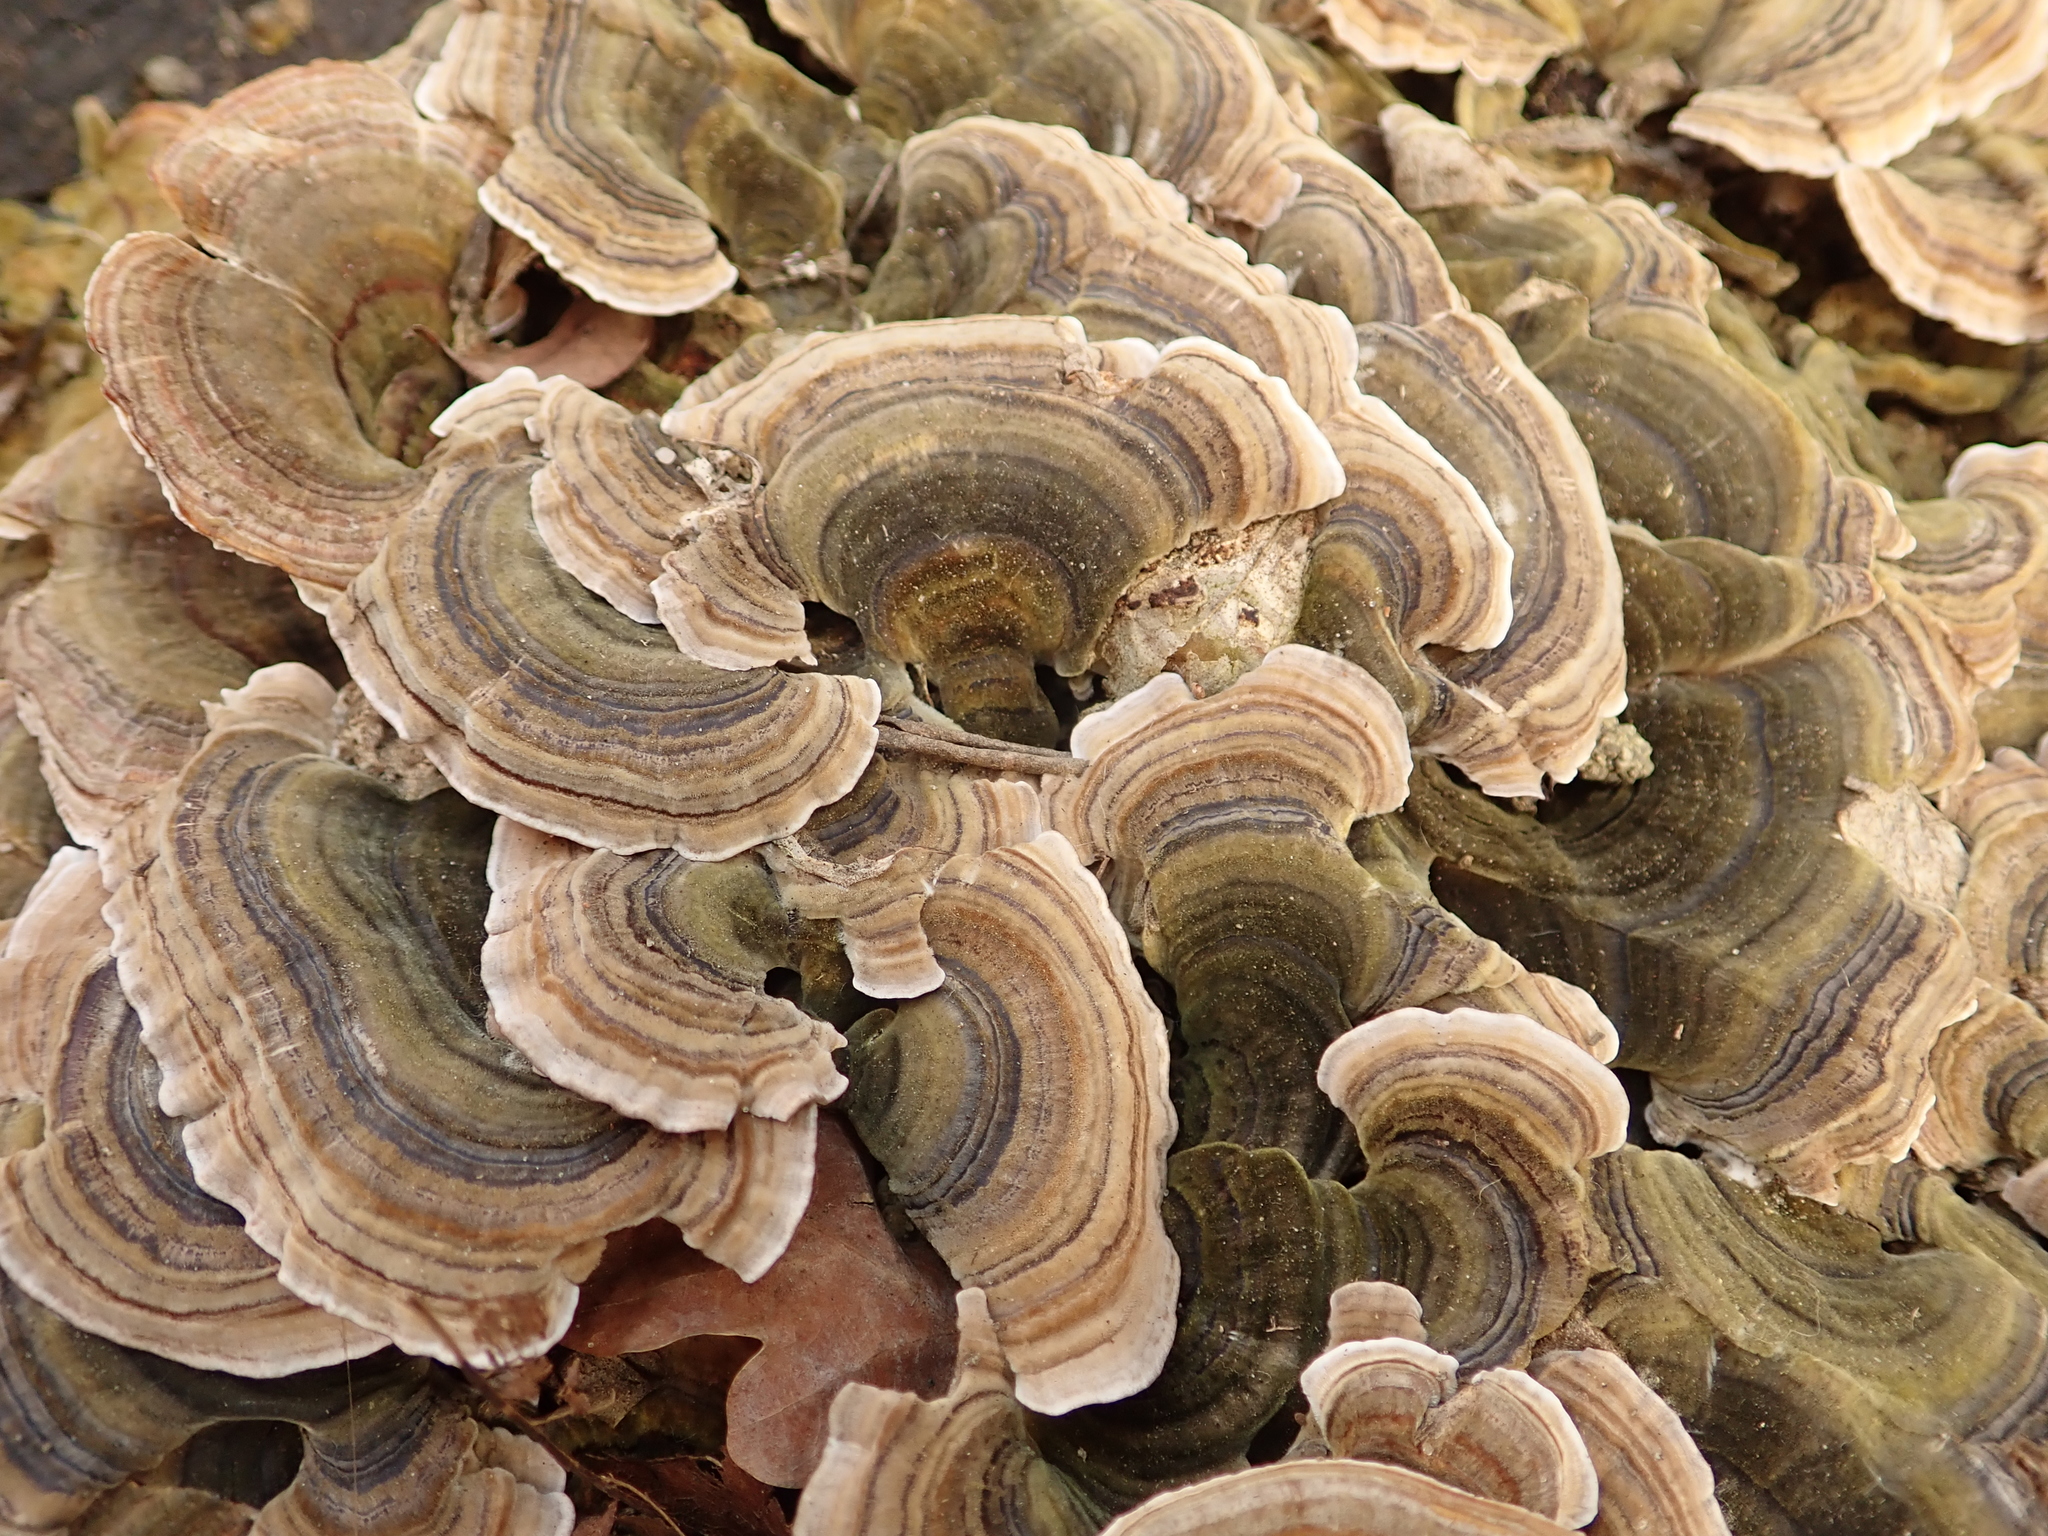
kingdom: Fungi
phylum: Basidiomycota
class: Agaricomycetes
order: Polyporales
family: Polyporaceae
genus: Trametes
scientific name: Trametes versicolor
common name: Turkeytail
